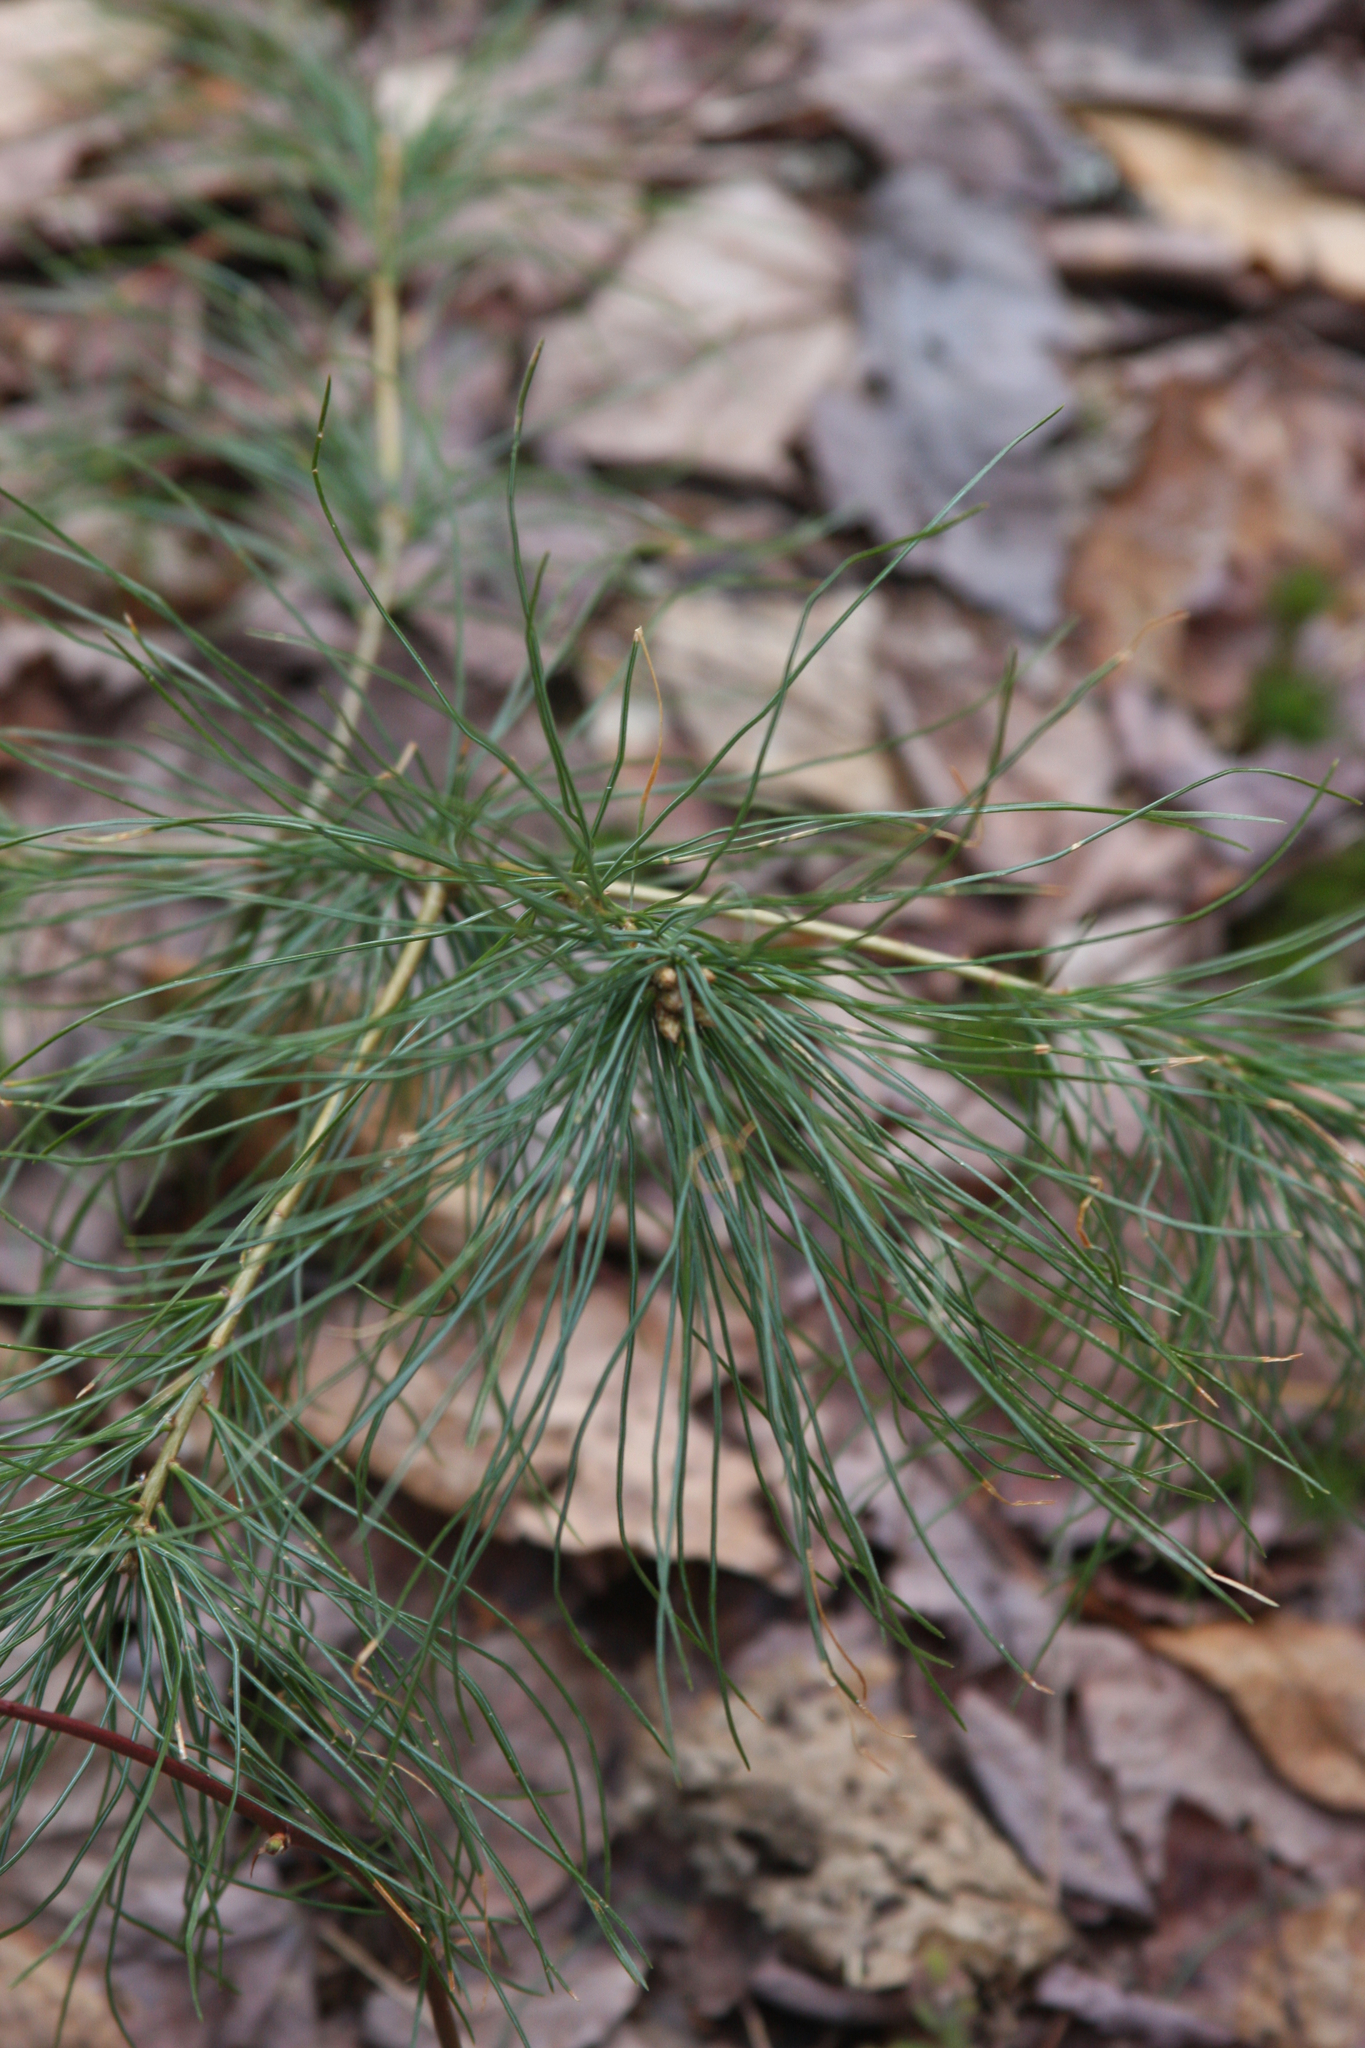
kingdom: Plantae
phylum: Tracheophyta
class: Pinopsida
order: Pinales
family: Pinaceae
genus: Pinus
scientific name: Pinus strobus
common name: Weymouth pine
